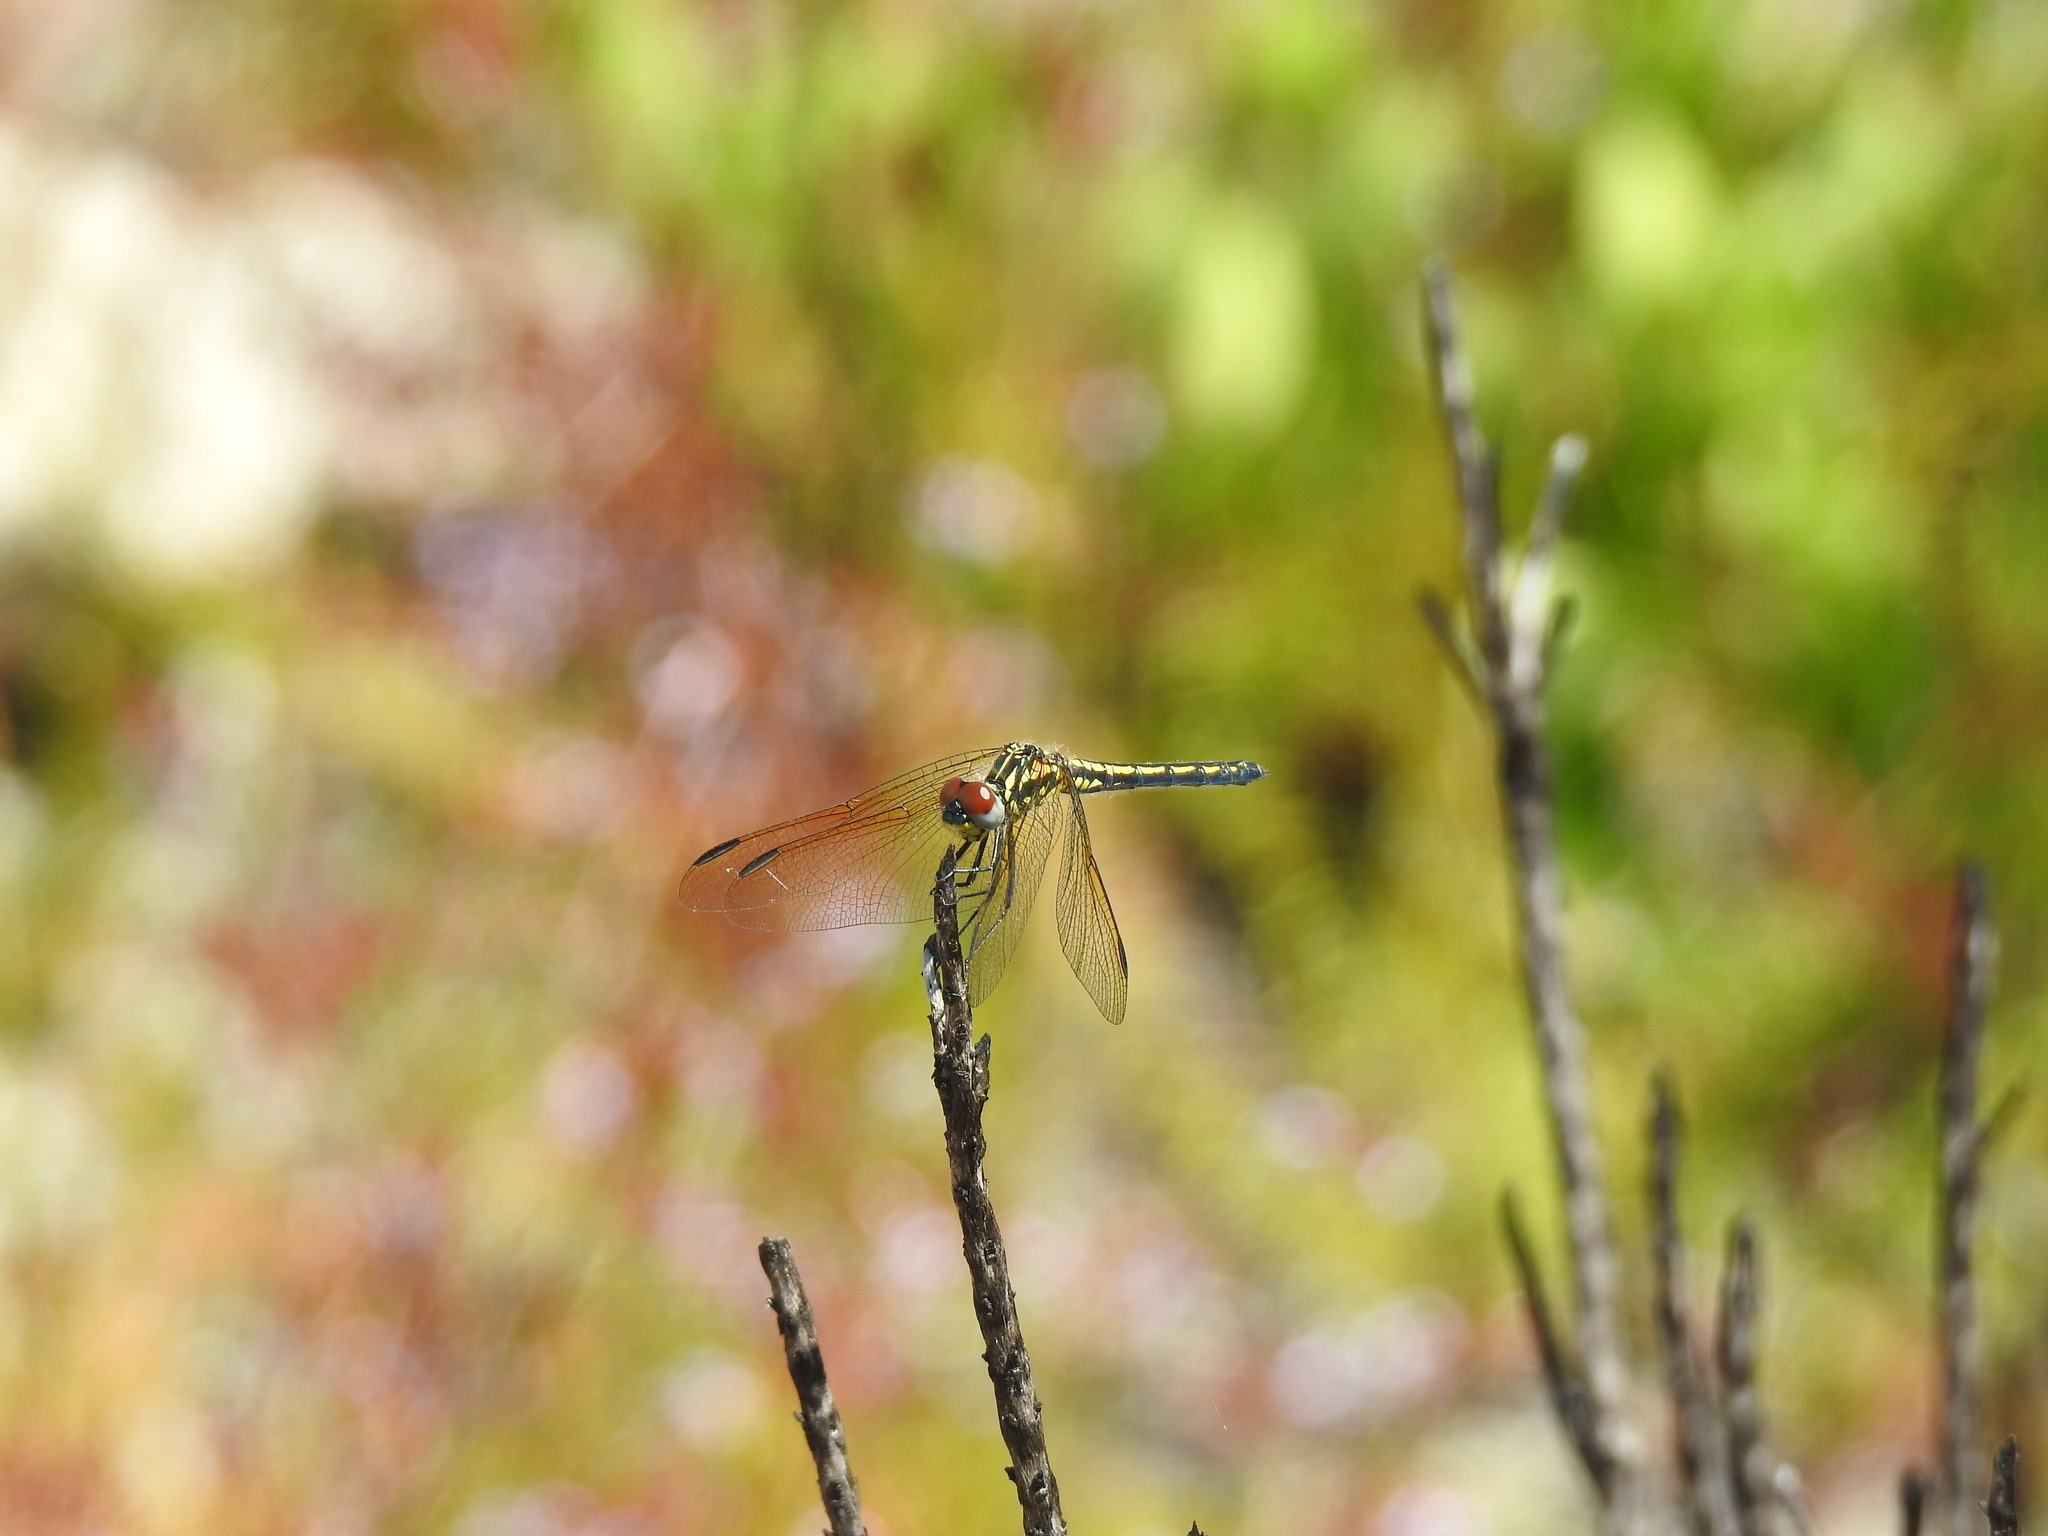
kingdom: Animalia
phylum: Arthropoda
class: Insecta
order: Odonata
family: Libellulidae
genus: Trithemis
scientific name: Trithemis stictica
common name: Jaunty dropwing
